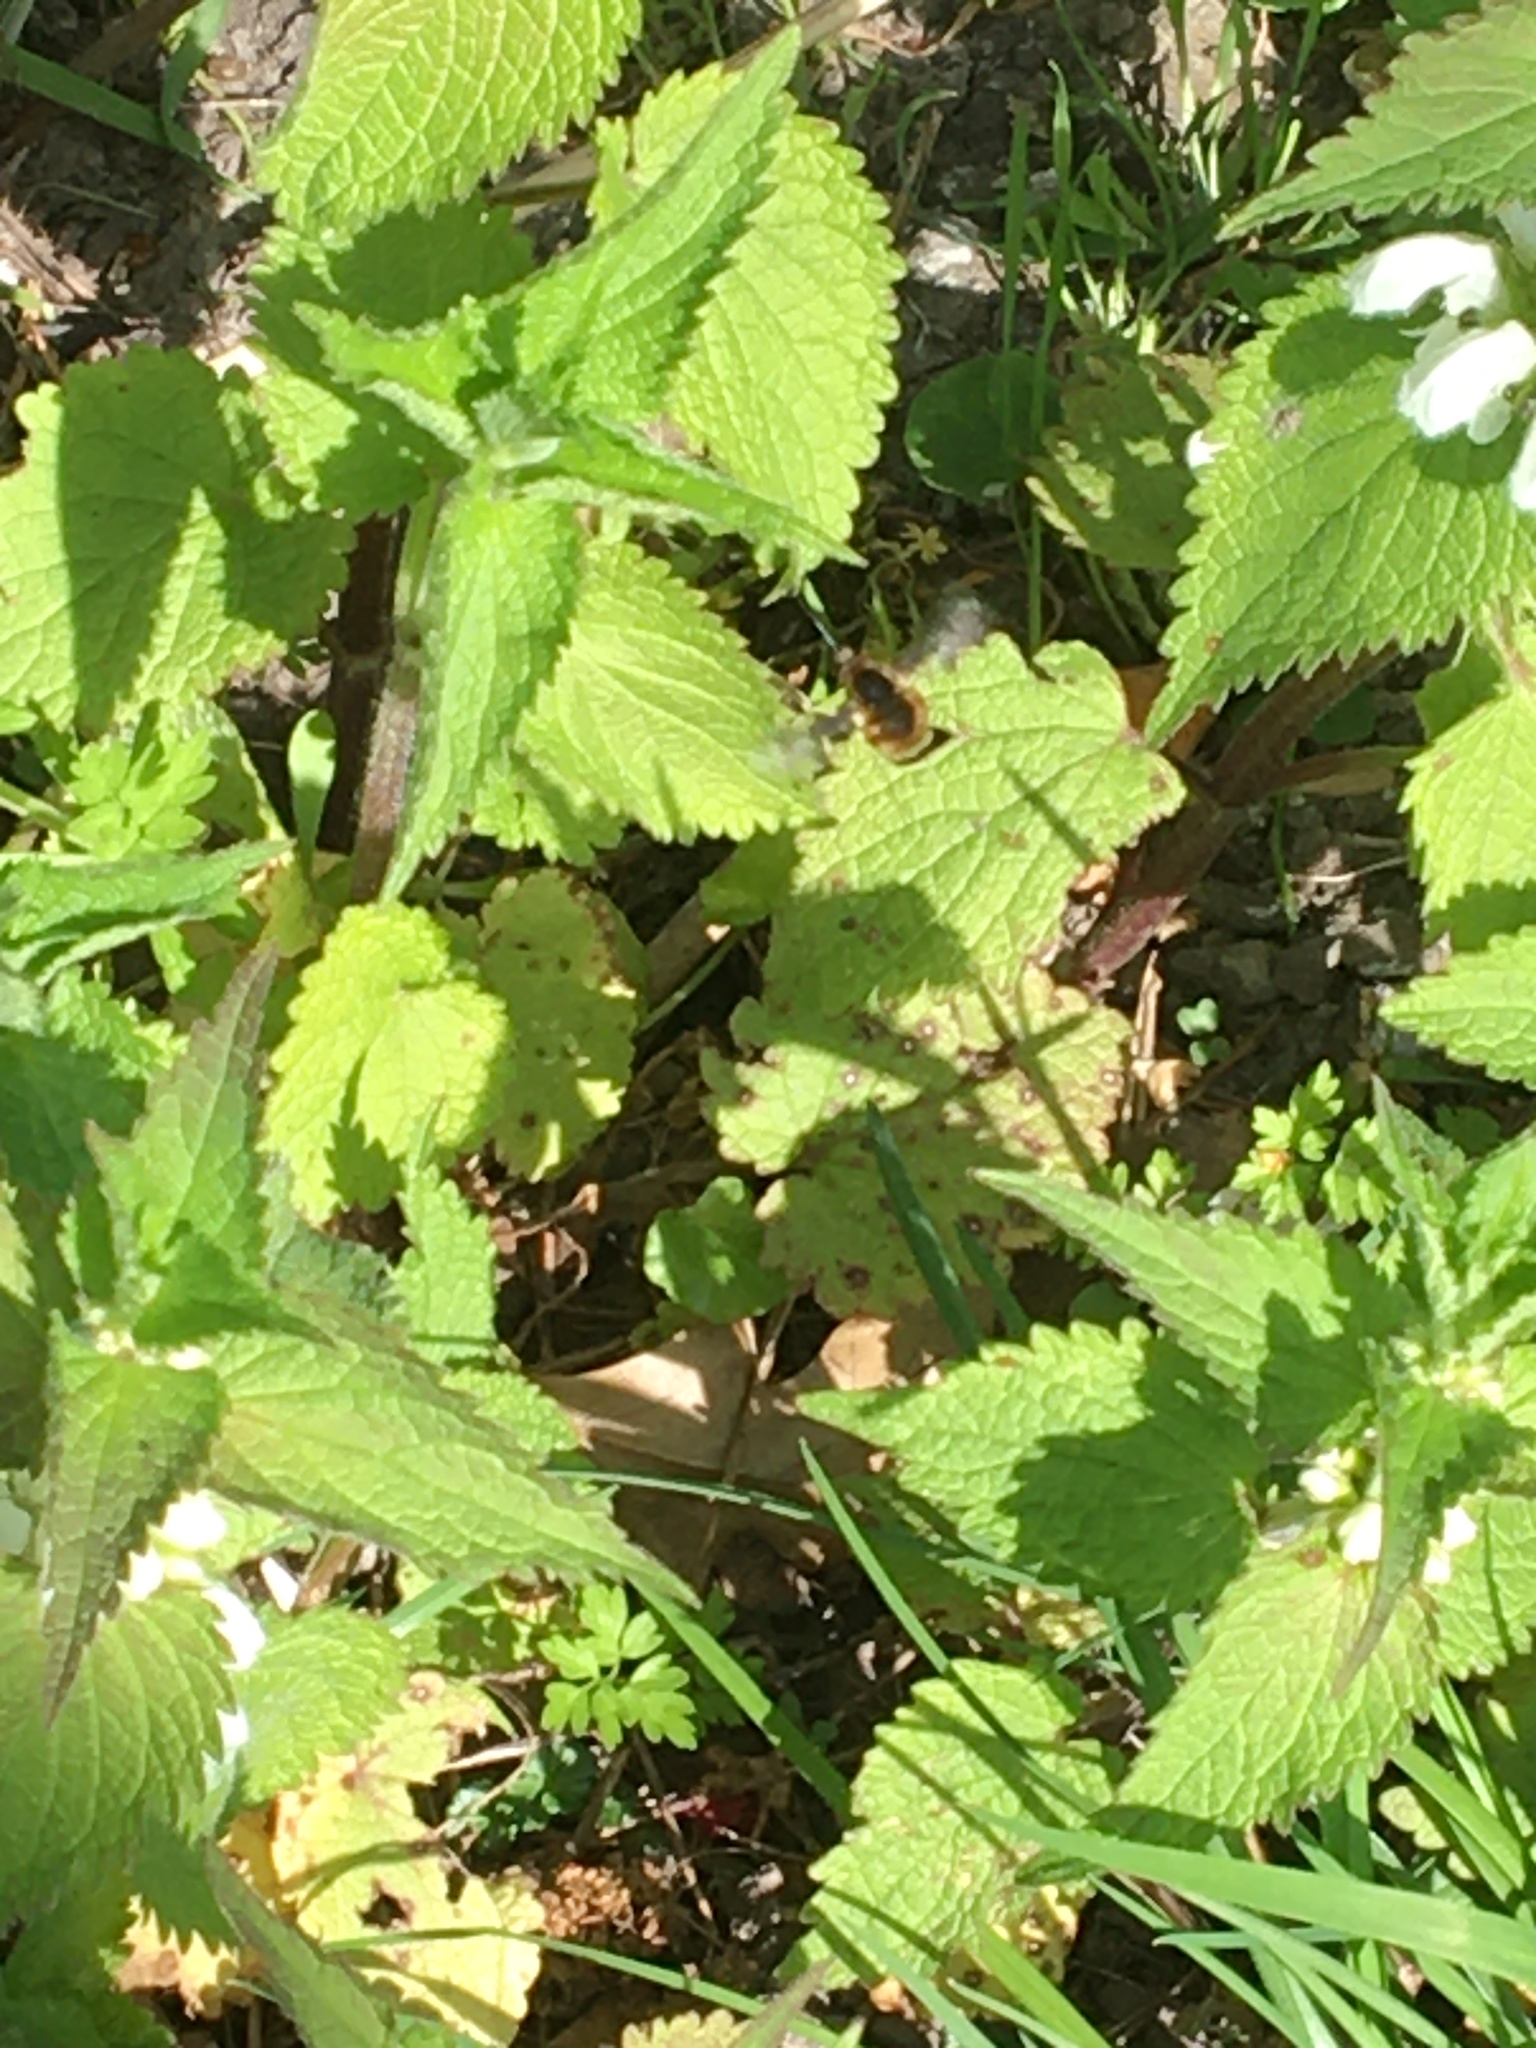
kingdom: Animalia
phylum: Arthropoda
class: Insecta
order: Diptera
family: Bombyliidae
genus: Bombylius
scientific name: Bombylius major
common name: Bee fly
